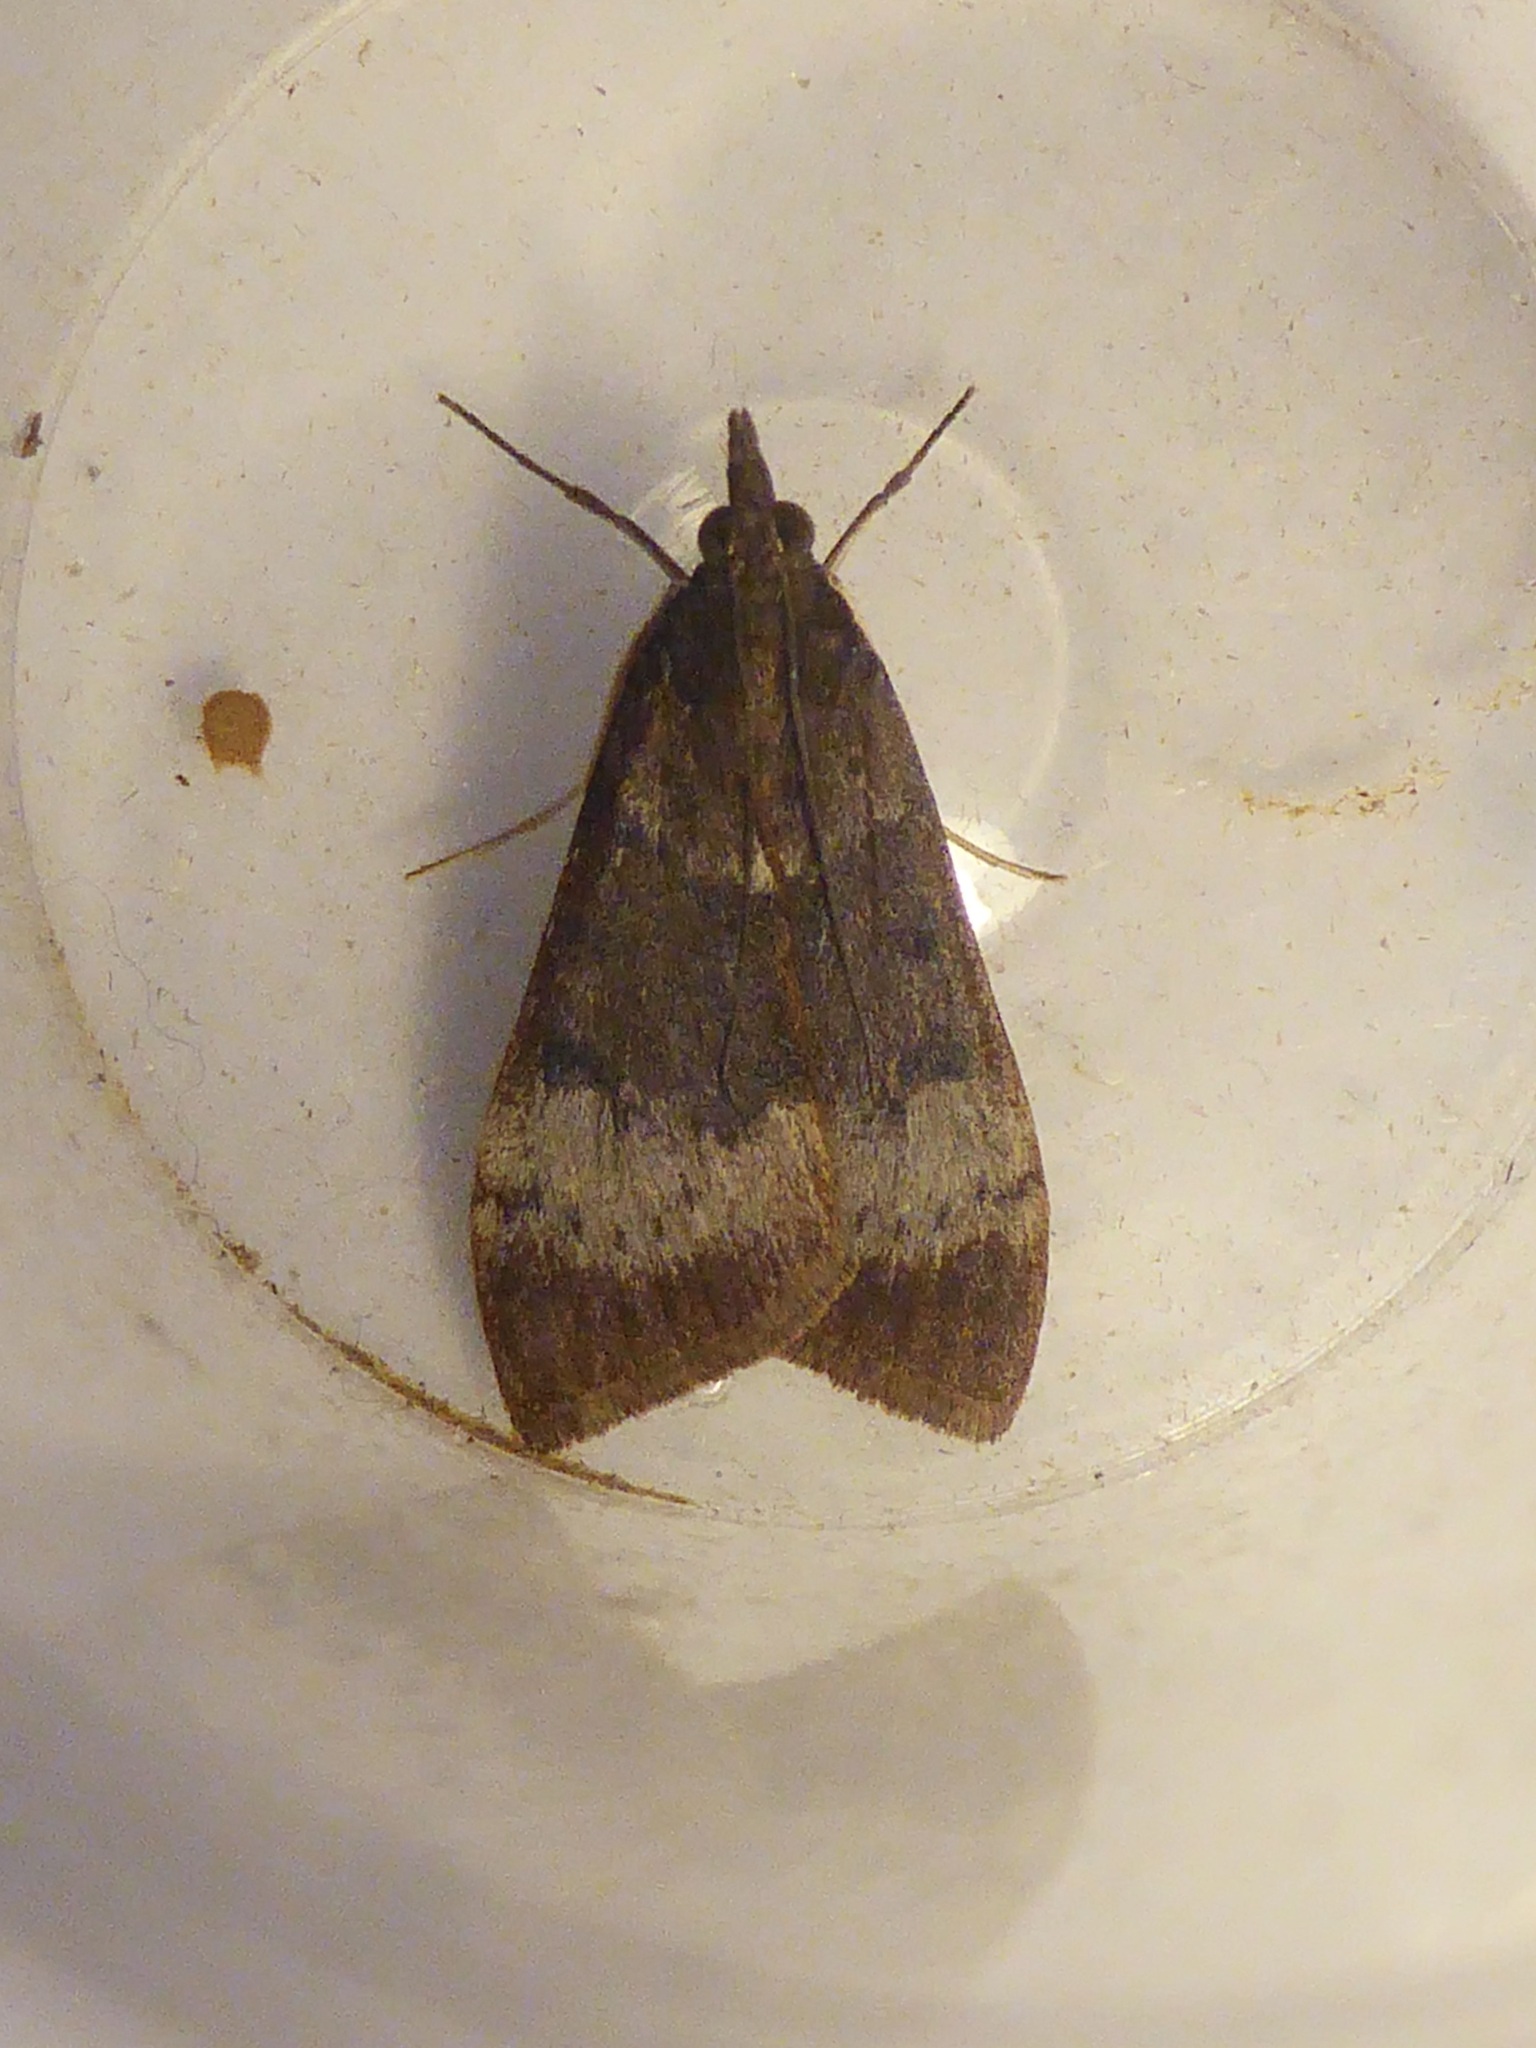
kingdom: Animalia
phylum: Arthropoda
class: Insecta
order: Lepidoptera
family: Crambidae
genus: Uresiphita
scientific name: Uresiphita gilvata
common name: Yellow-underwing pearl
